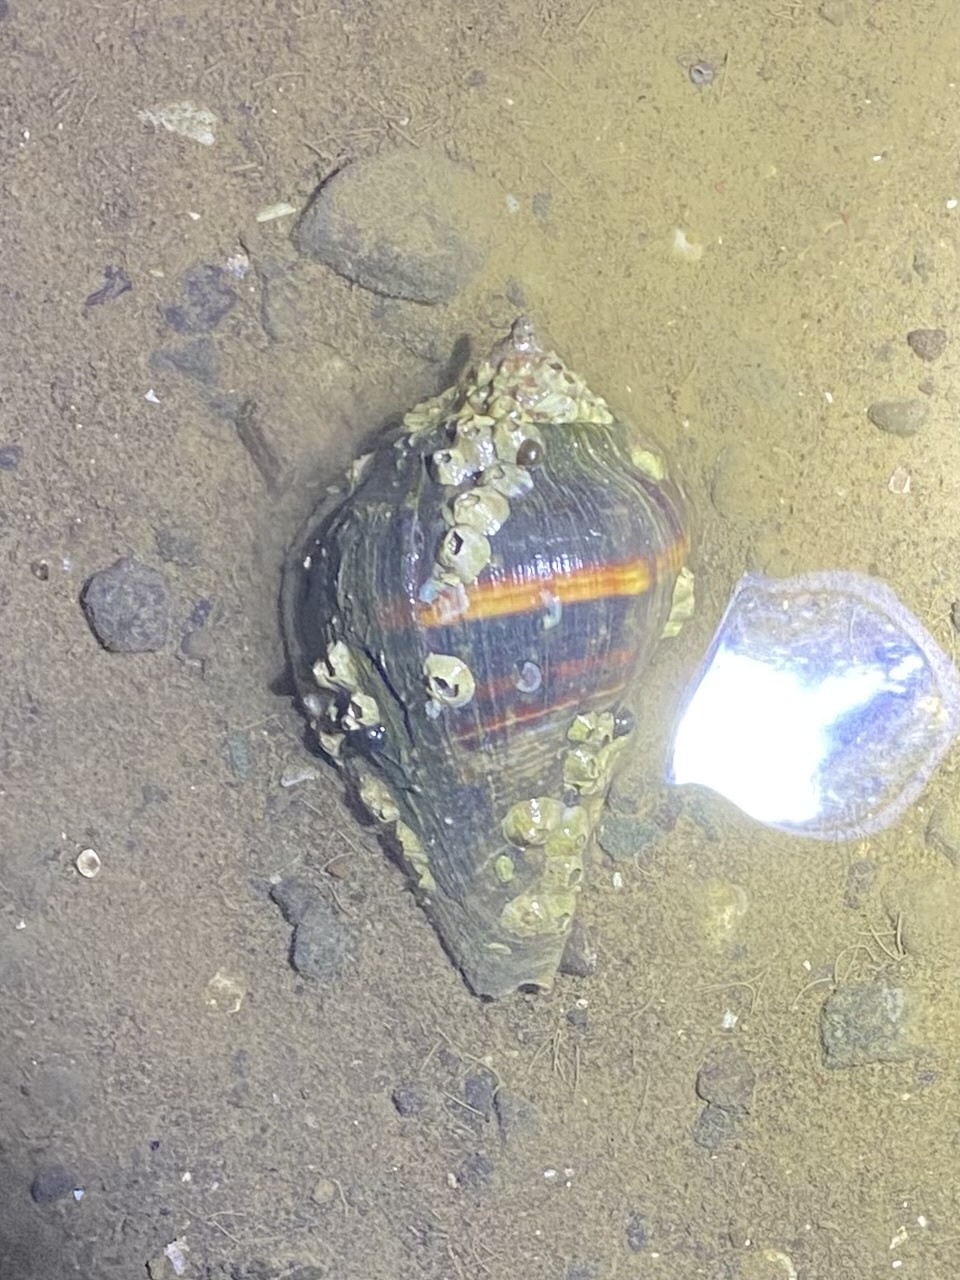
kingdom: Animalia
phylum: Mollusca
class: Gastropoda
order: Neogastropoda
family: Melongenidae
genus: Melongena
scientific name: Melongena patula
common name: Pacific crown conch
